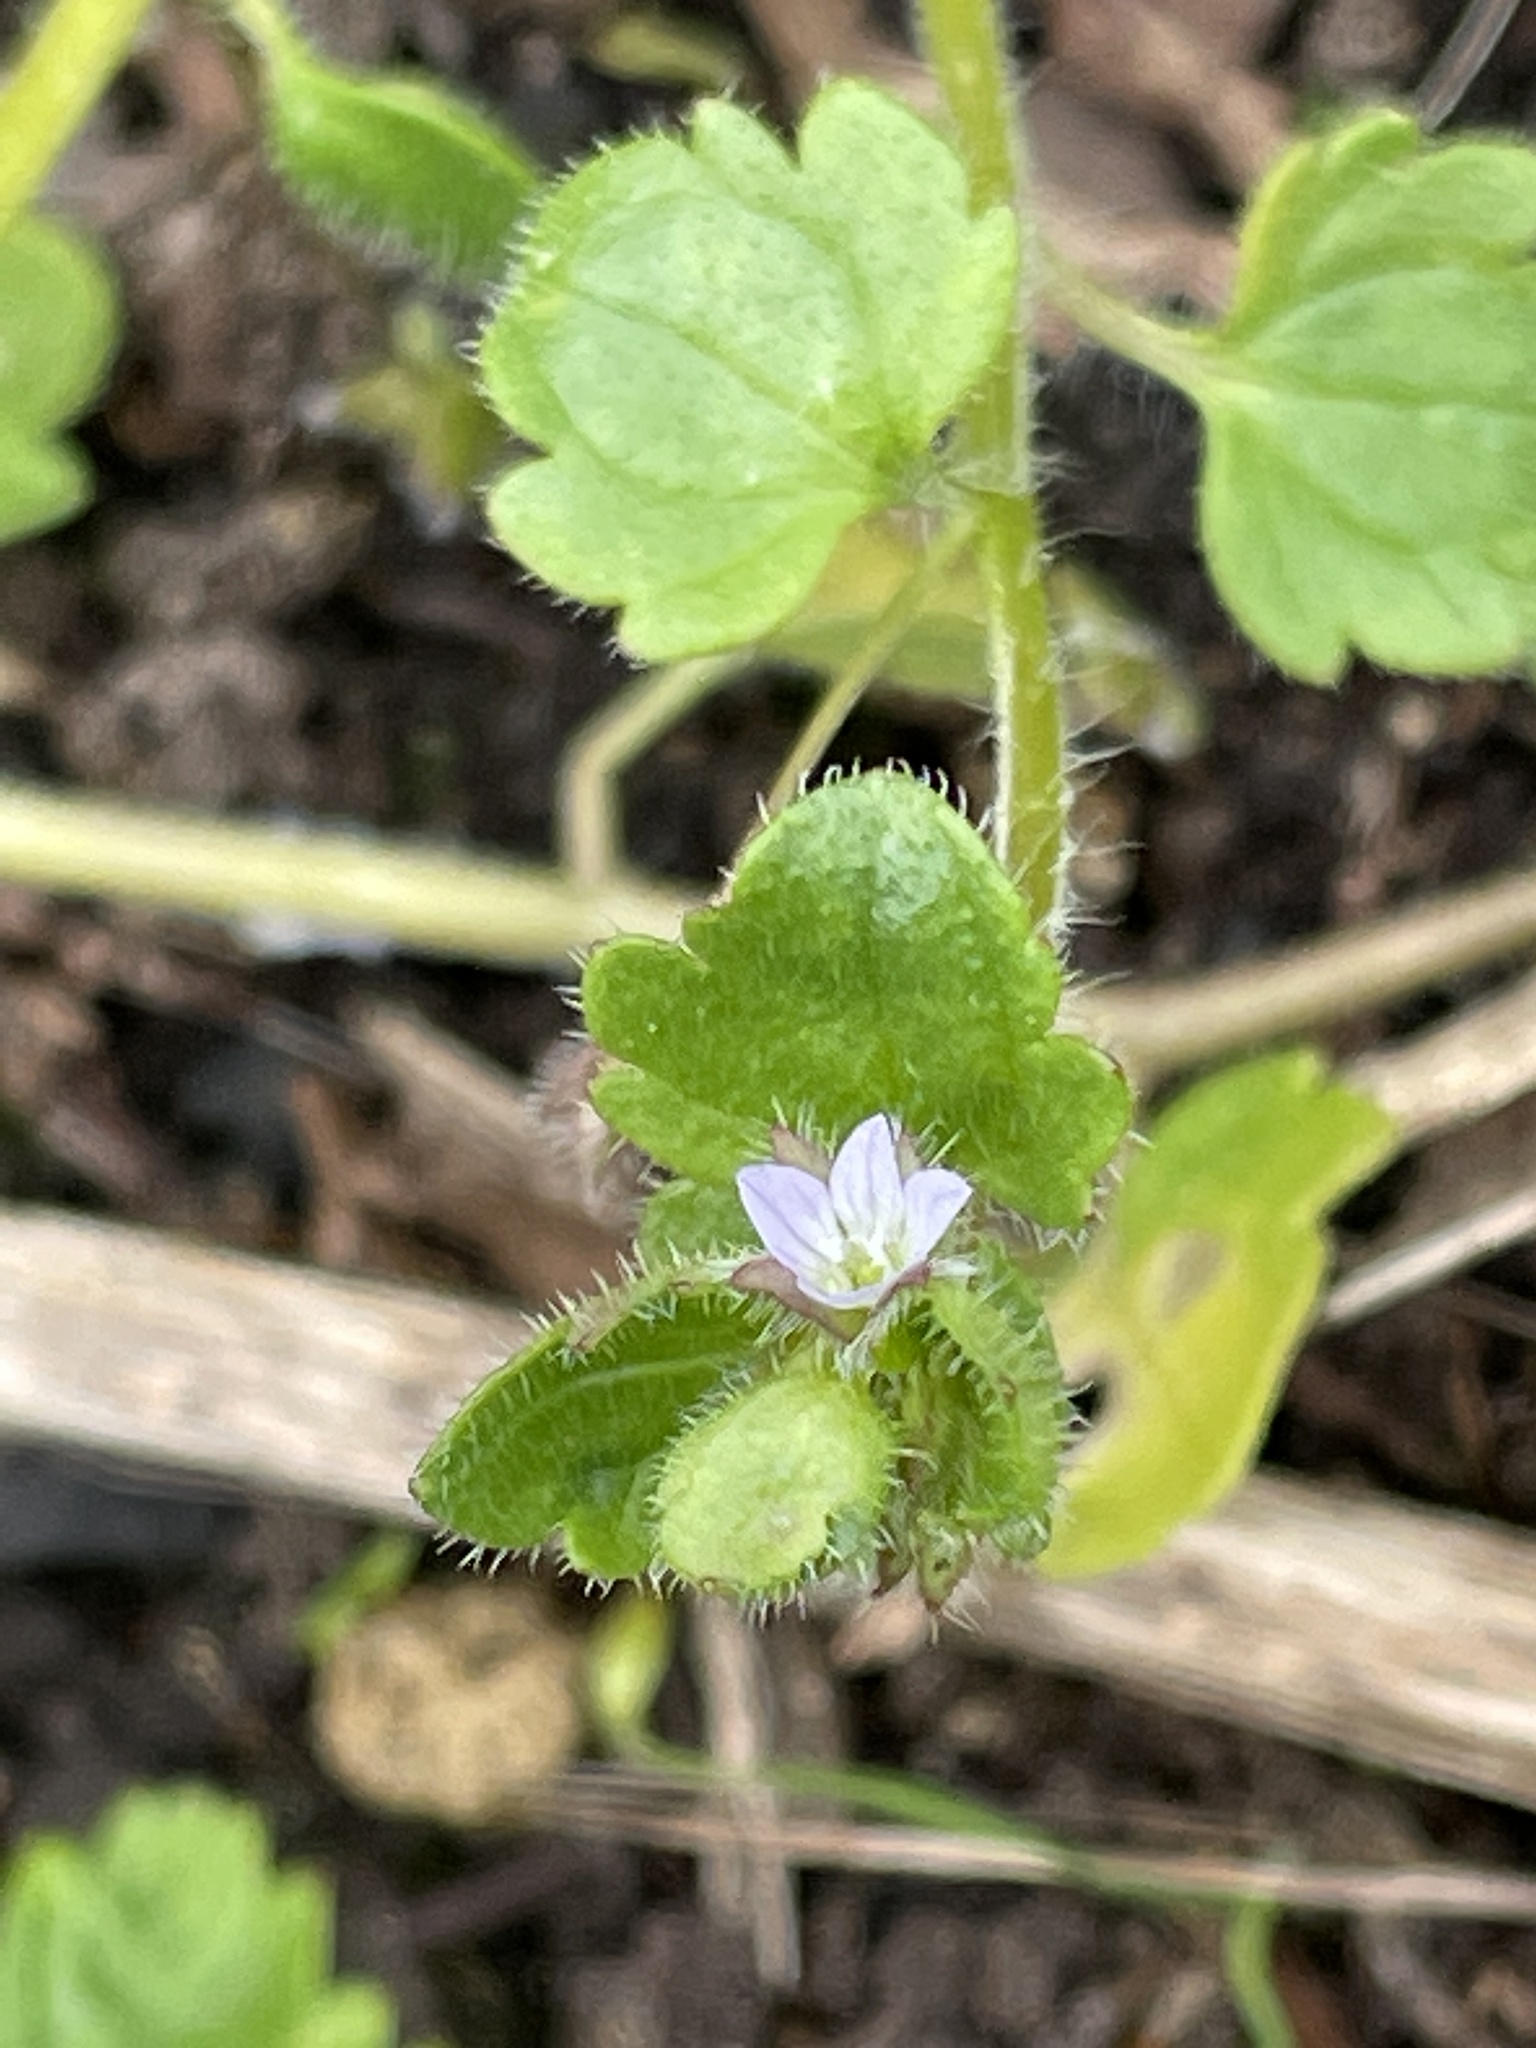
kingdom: Plantae
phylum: Tracheophyta
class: Magnoliopsida
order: Lamiales
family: Plantaginaceae
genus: Veronica
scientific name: Veronica sublobata
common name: False ivy-leaved speedwell
